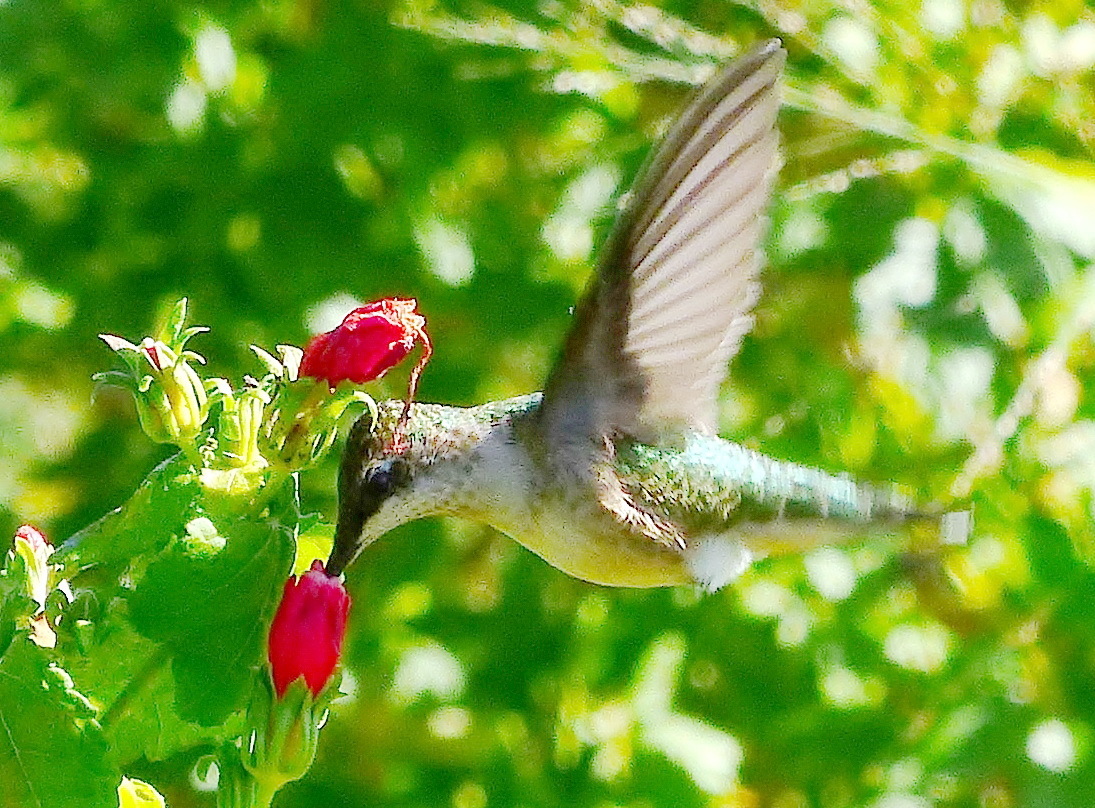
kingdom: Animalia
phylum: Chordata
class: Aves
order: Apodiformes
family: Trochilidae
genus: Archilochus
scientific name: Archilochus alexandri
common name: Black-chinned hummingbird
